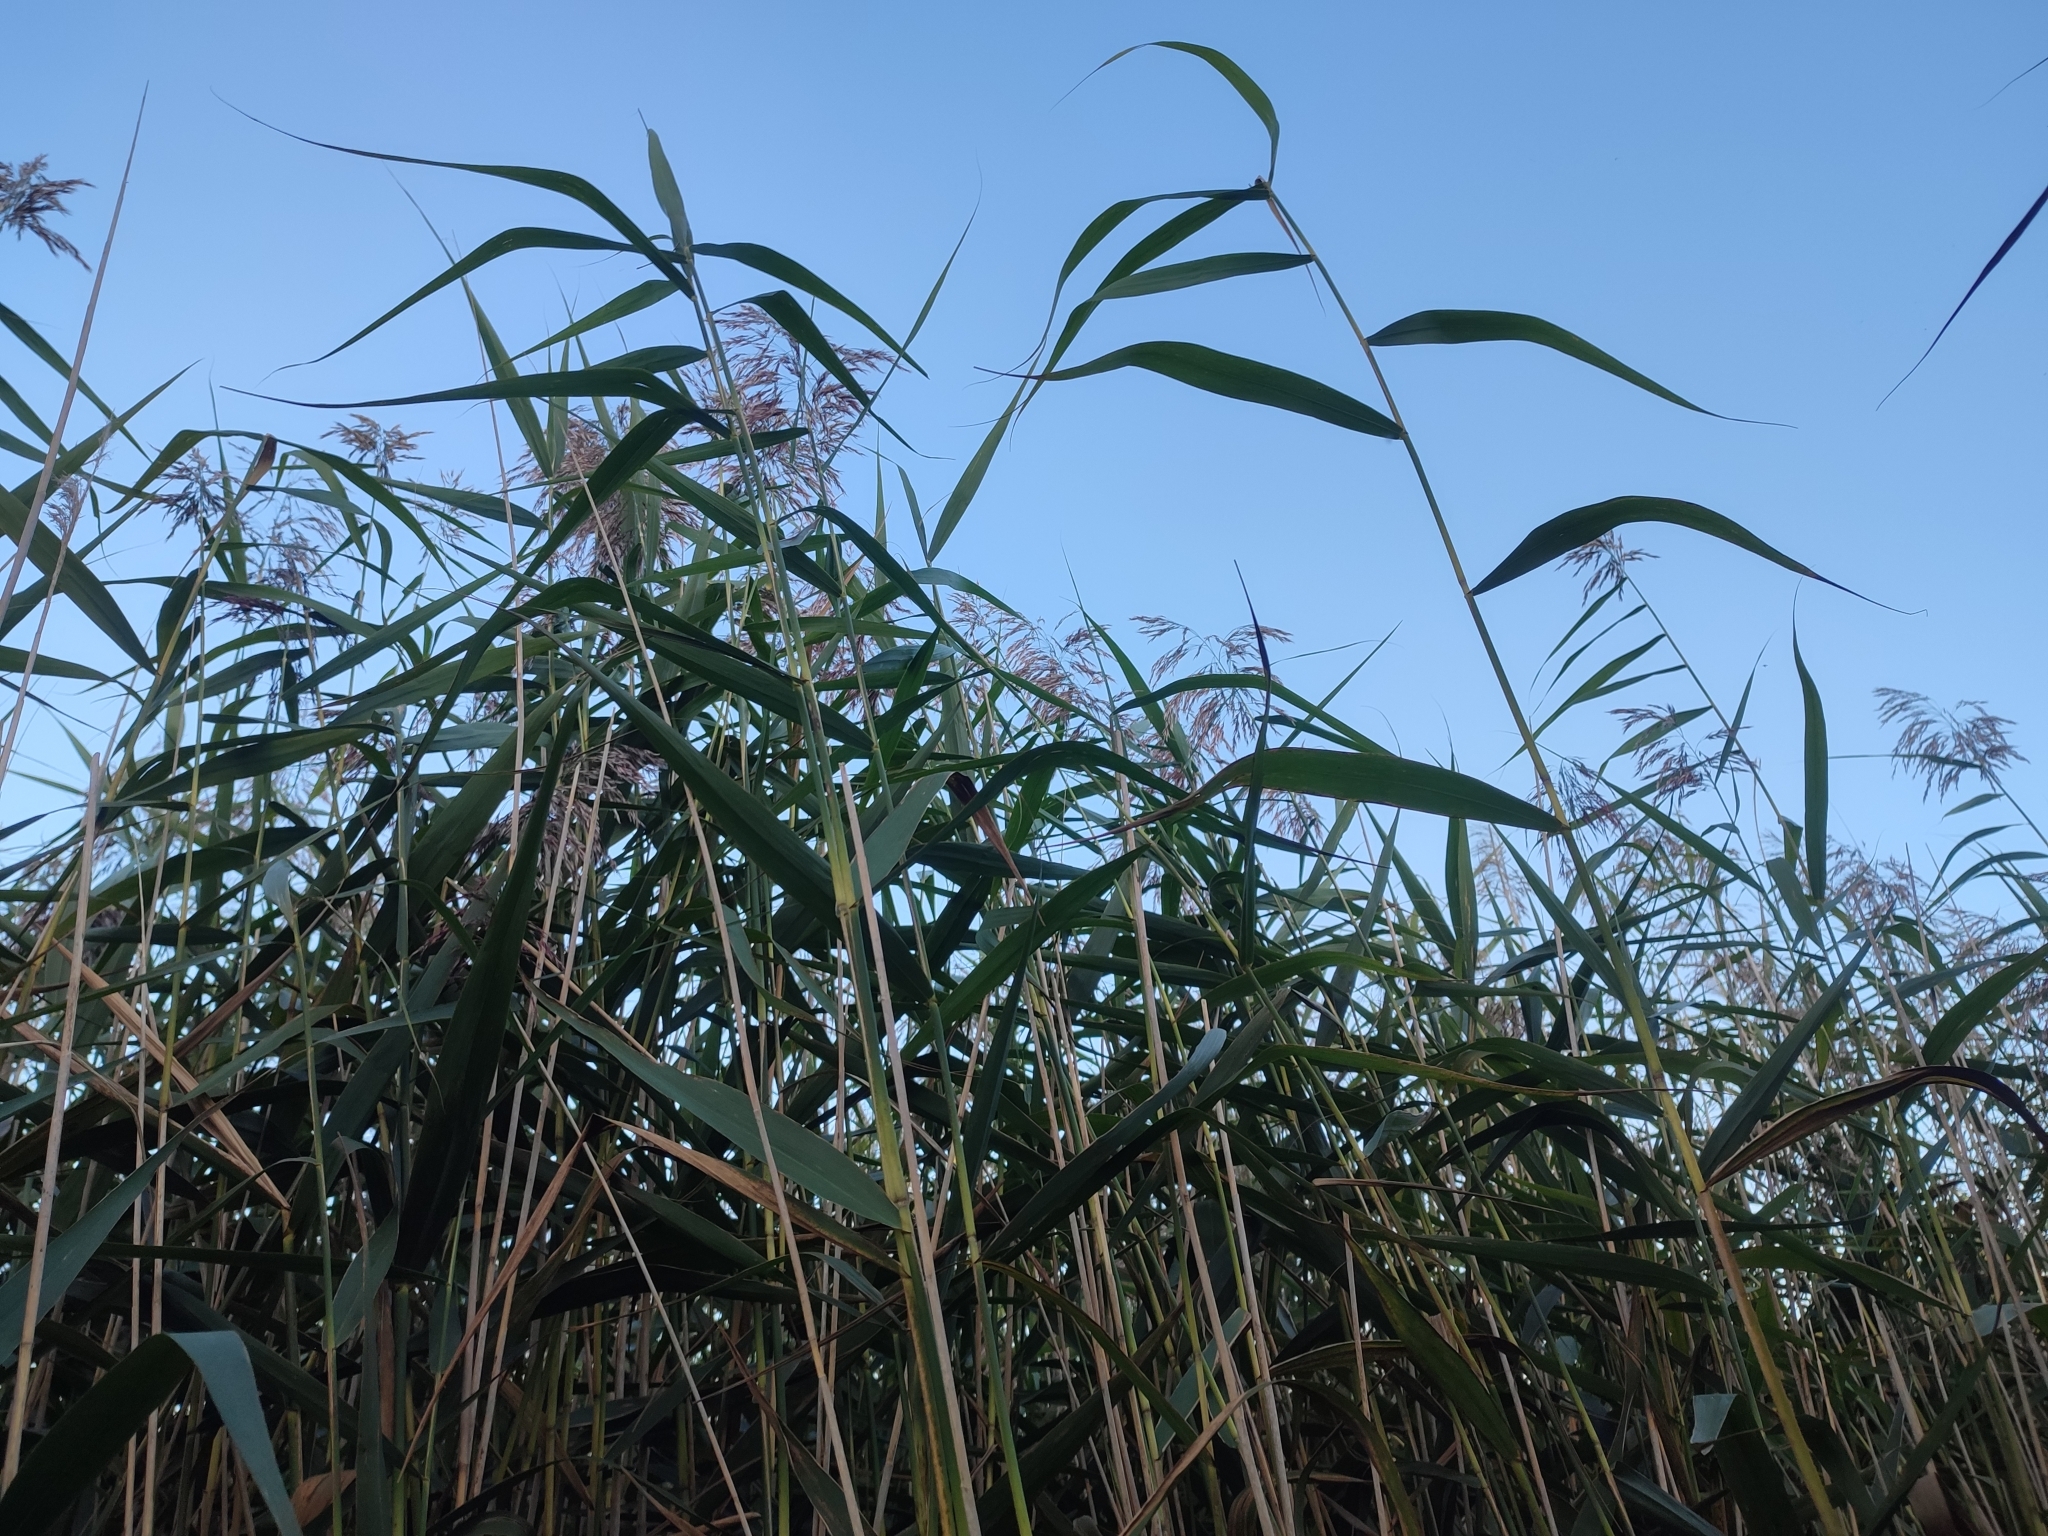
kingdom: Plantae
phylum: Tracheophyta
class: Liliopsida
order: Poales
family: Poaceae
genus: Phragmites
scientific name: Phragmites australis
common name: Common reed
